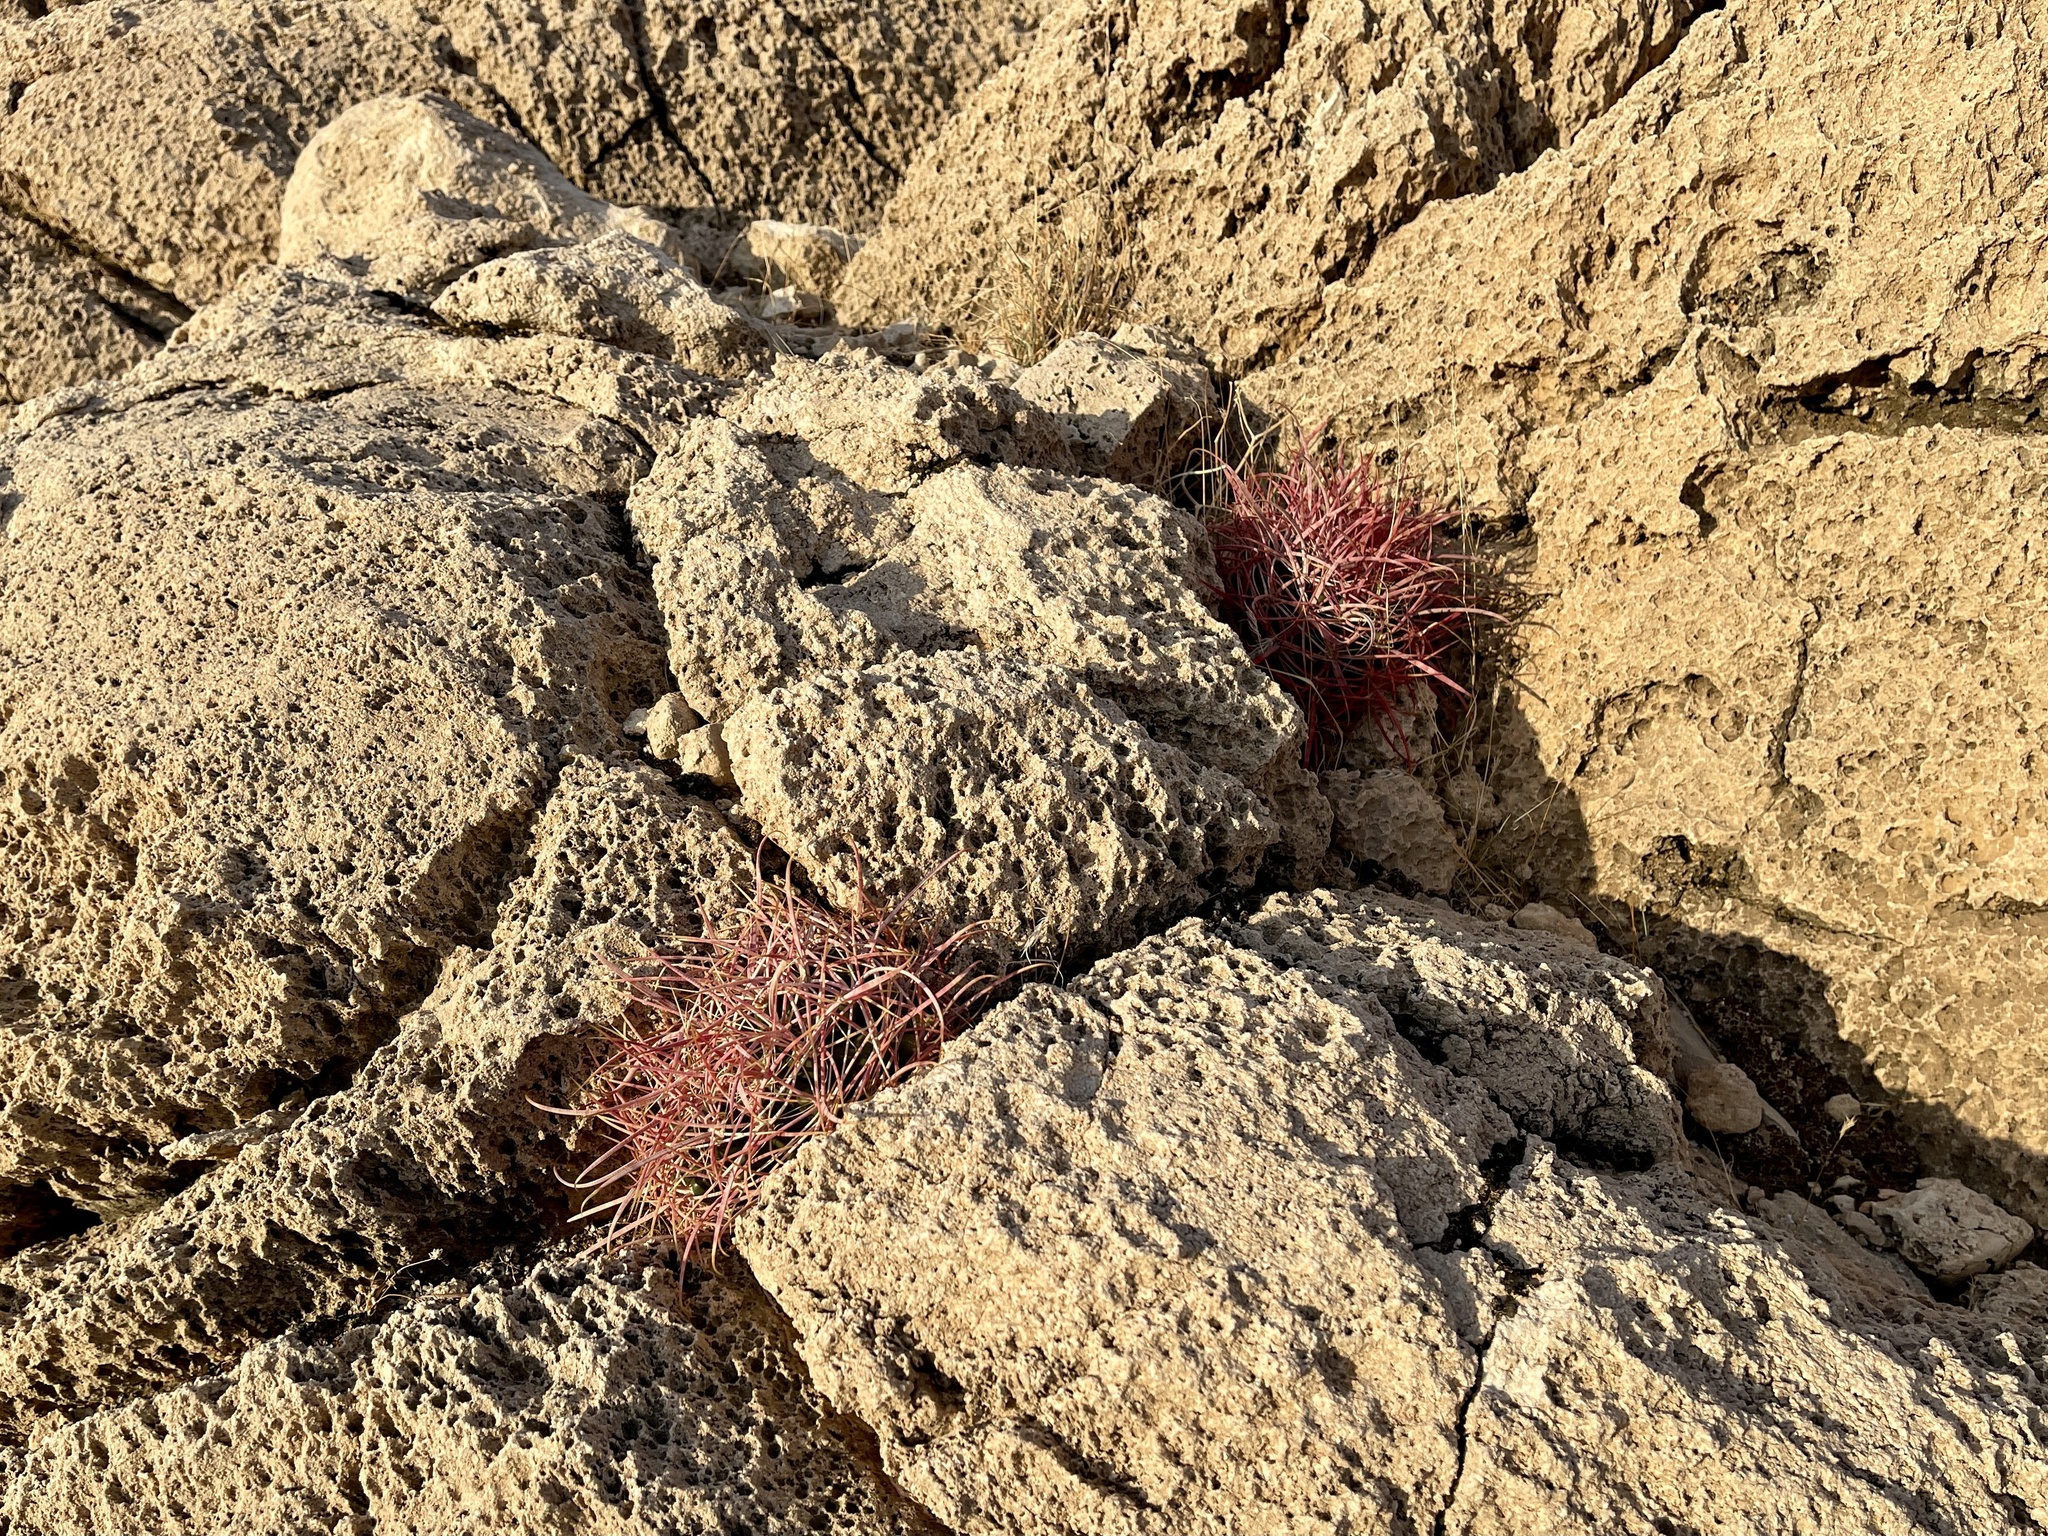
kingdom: Plantae
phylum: Tracheophyta
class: Magnoliopsida
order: Caryophyllales
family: Cactaceae
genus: Ferocactus
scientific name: Ferocactus cylindraceus
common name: California barrel cactus
